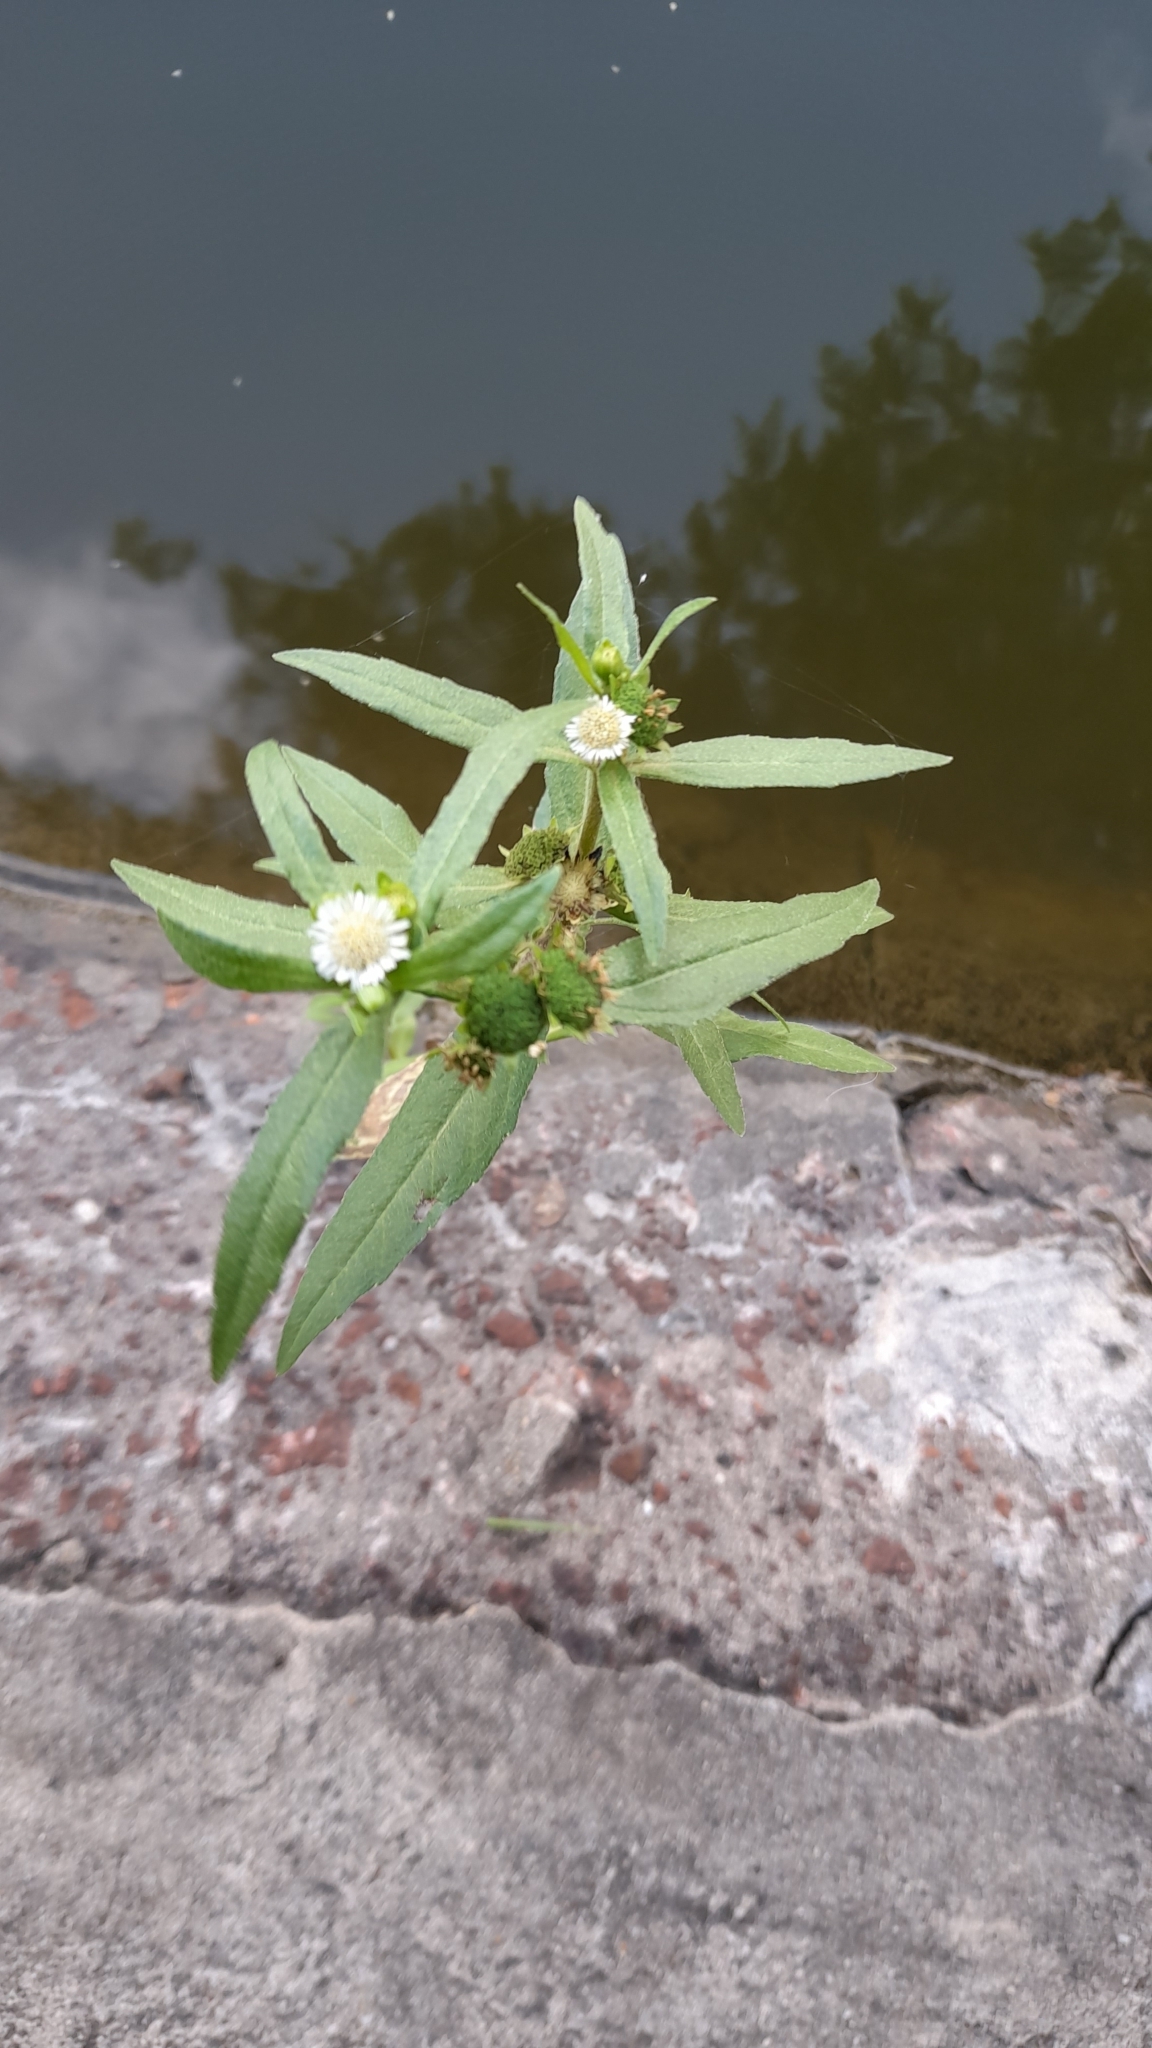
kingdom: Plantae
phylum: Tracheophyta
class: Magnoliopsida
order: Asterales
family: Asteraceae
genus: Eclipta
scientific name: Eclipta prostrata
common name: False daisy
